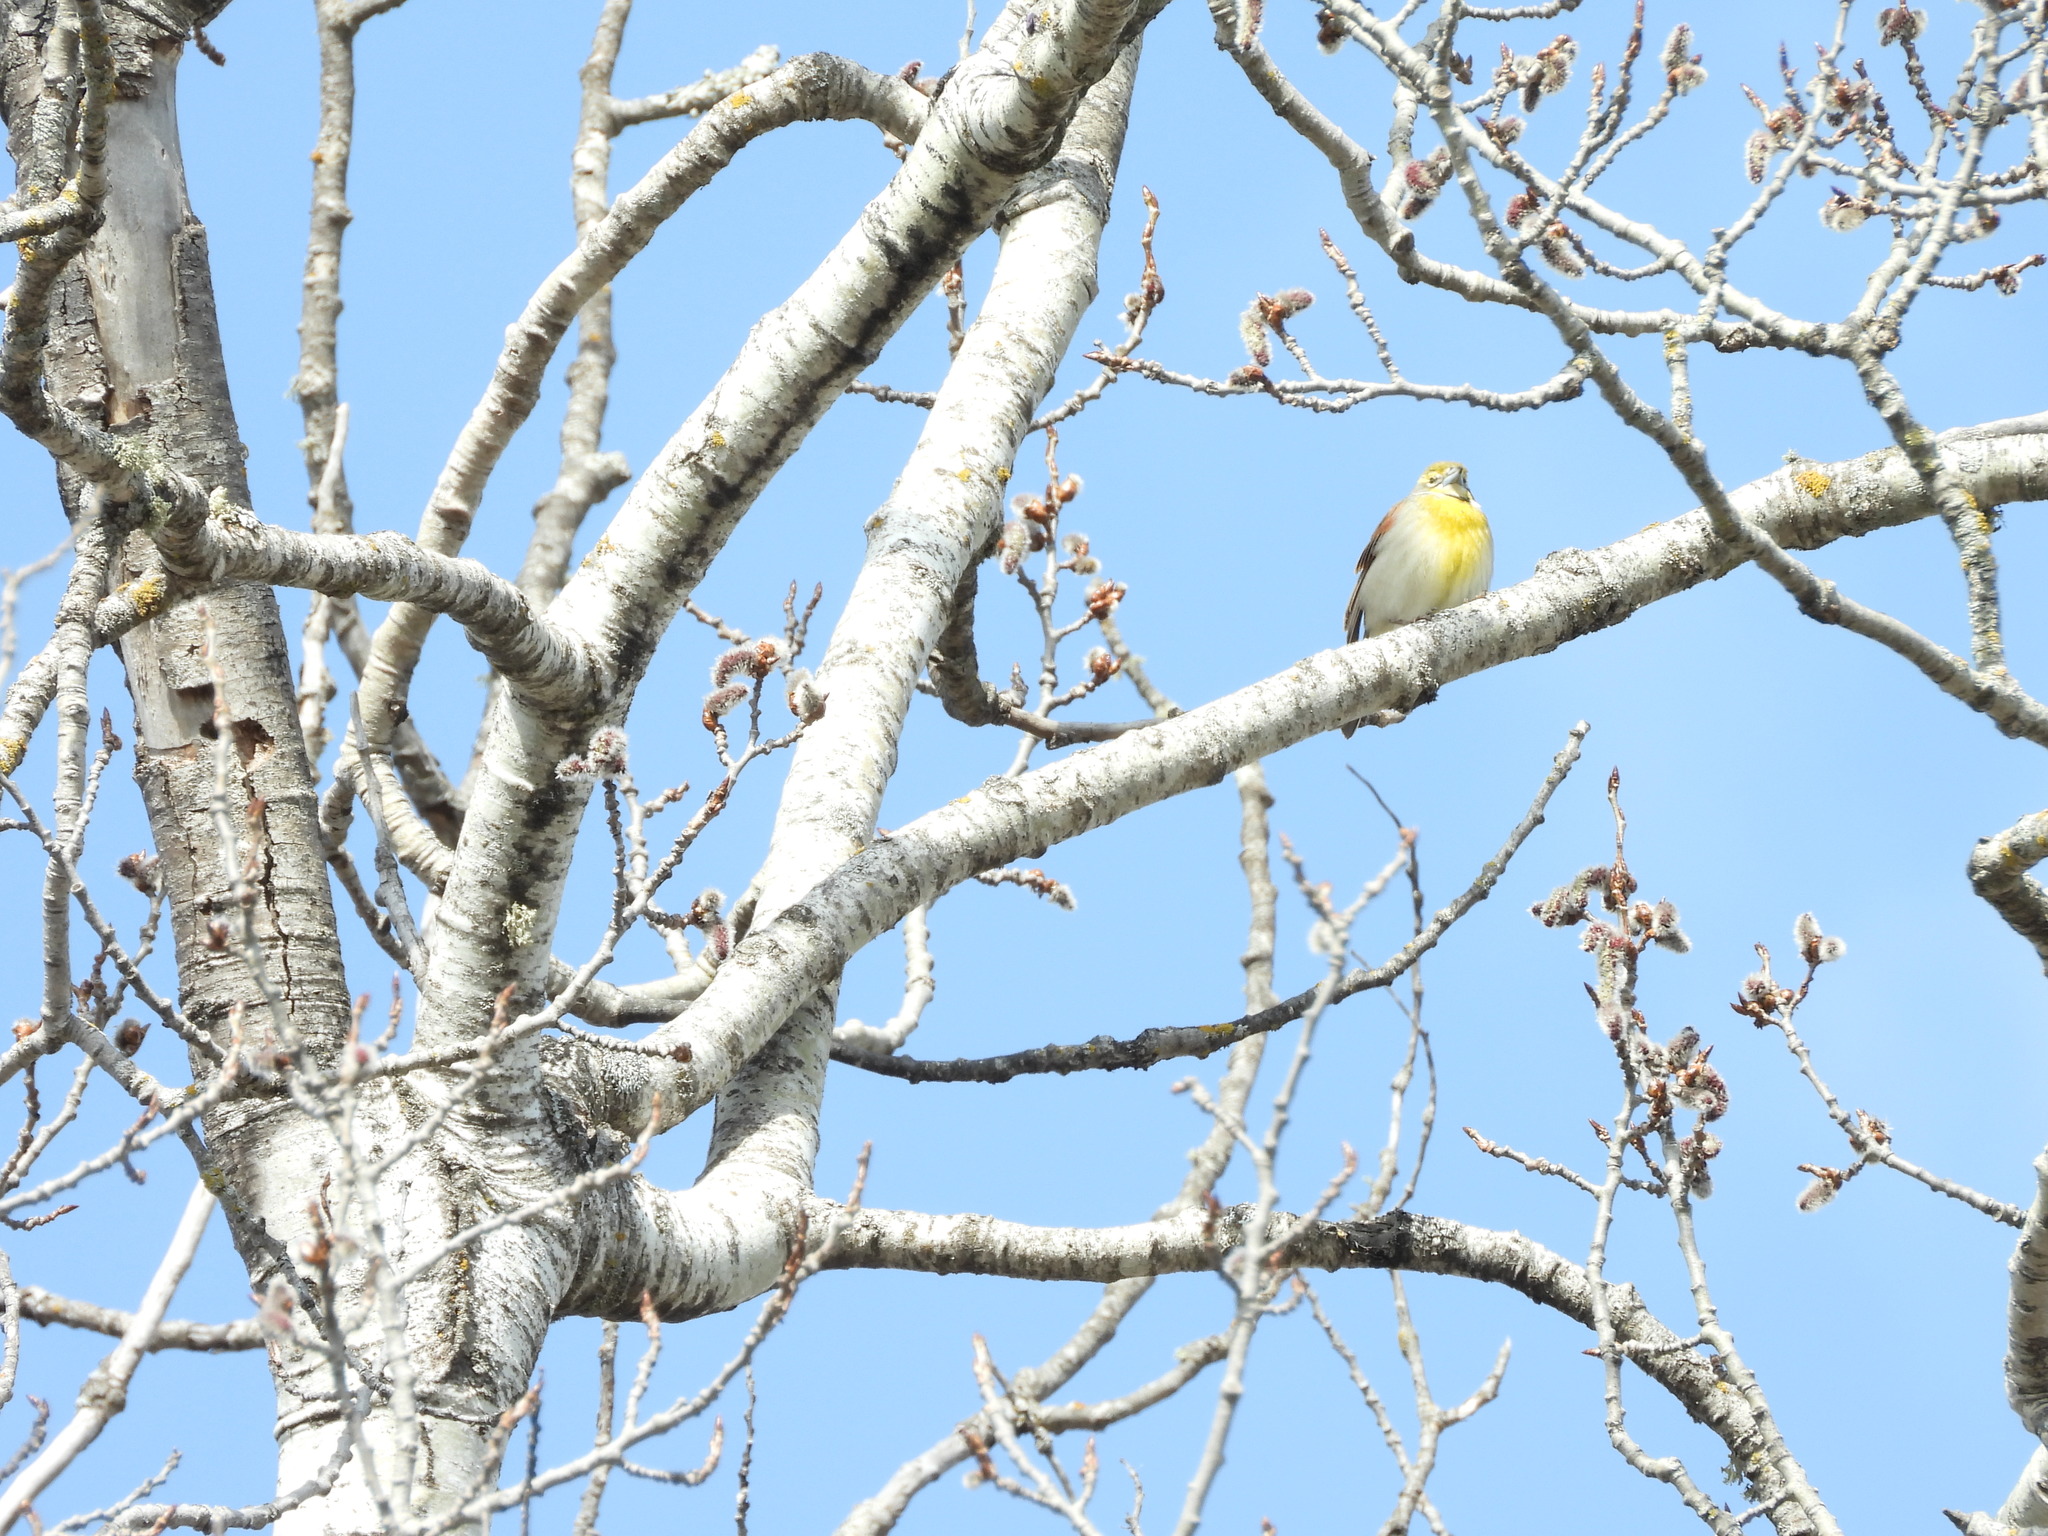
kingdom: Animalia
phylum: Chordata
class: Aves
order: Passeriformes
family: Cardinalidae
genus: Spiza
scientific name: Spiza americana
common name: Dickcissel
